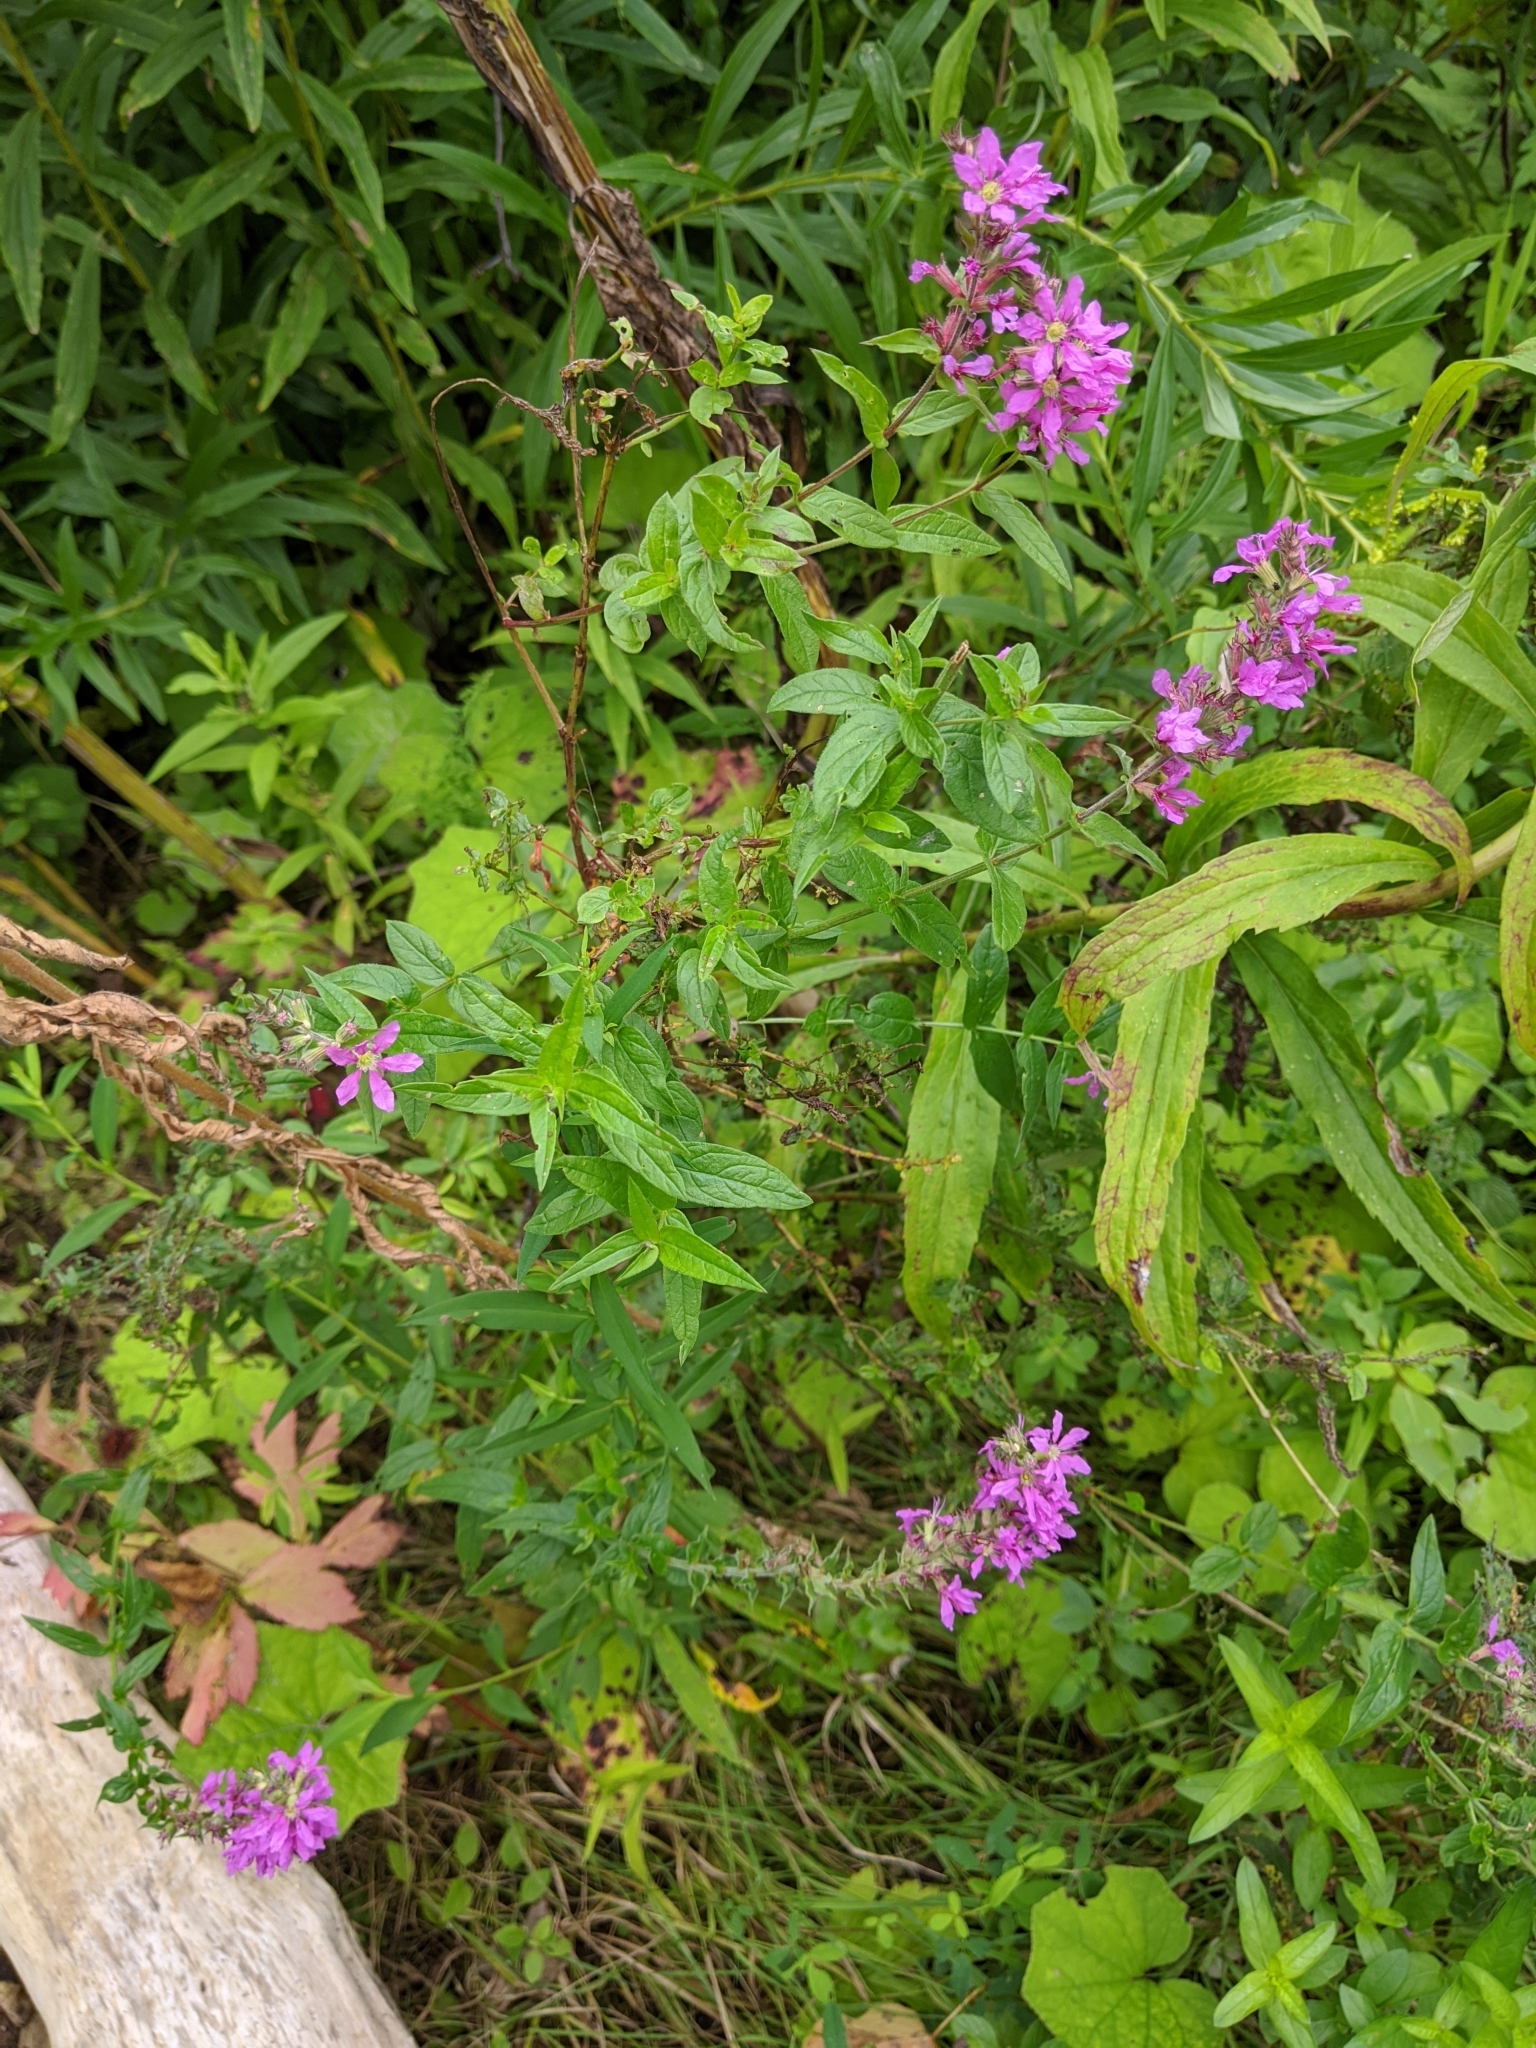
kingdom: Plantae
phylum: Tracheophyta
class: Magnoliopsida
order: Myrtales
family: Lythraceae
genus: Lythrum
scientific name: Lythrum salicaria
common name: Purple loosestrife
